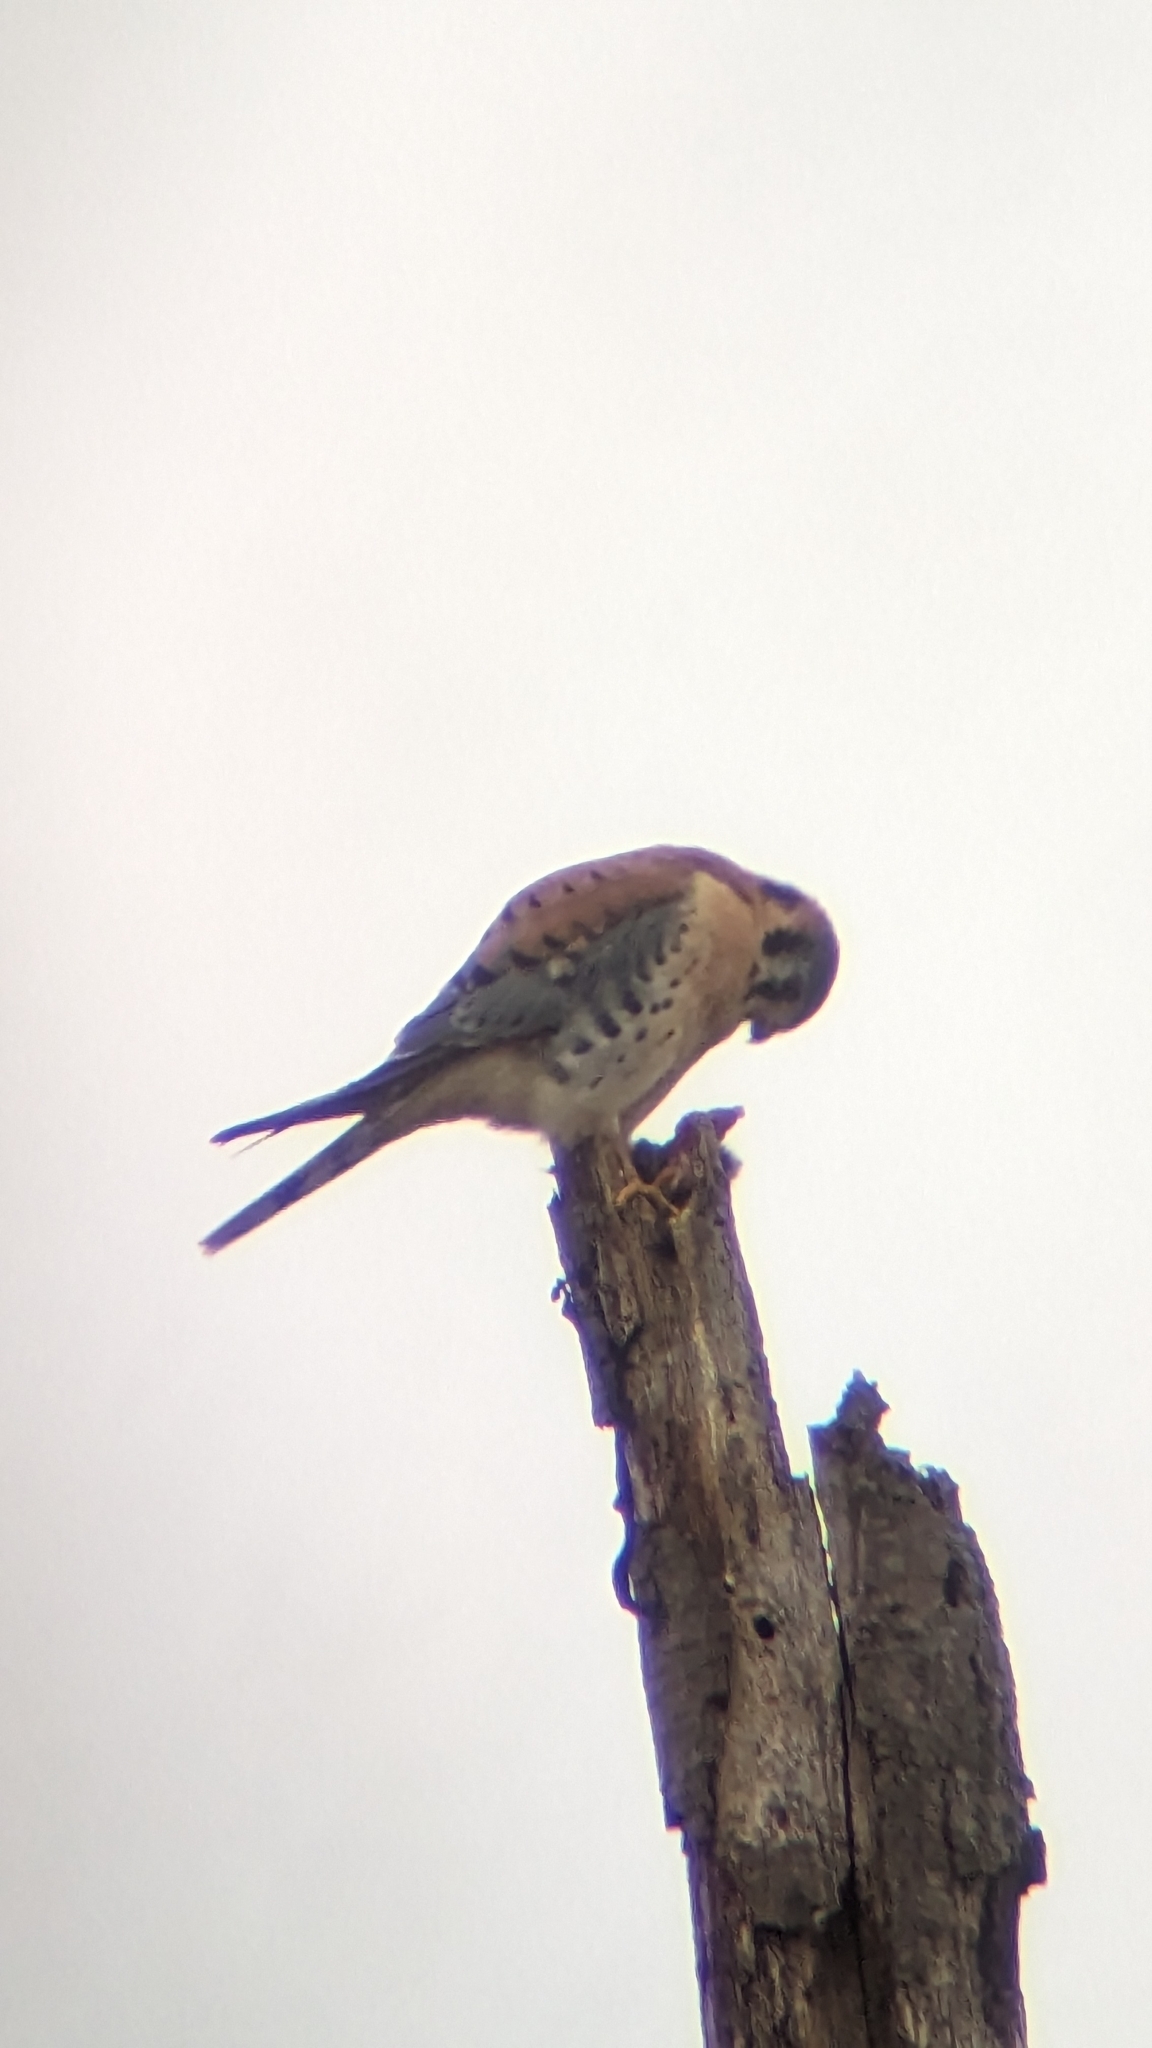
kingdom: Animalia
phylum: Chordata
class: Aves
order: Falconiformes
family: Falconidae
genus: Falco
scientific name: Falco sparverius
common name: American kestrel
